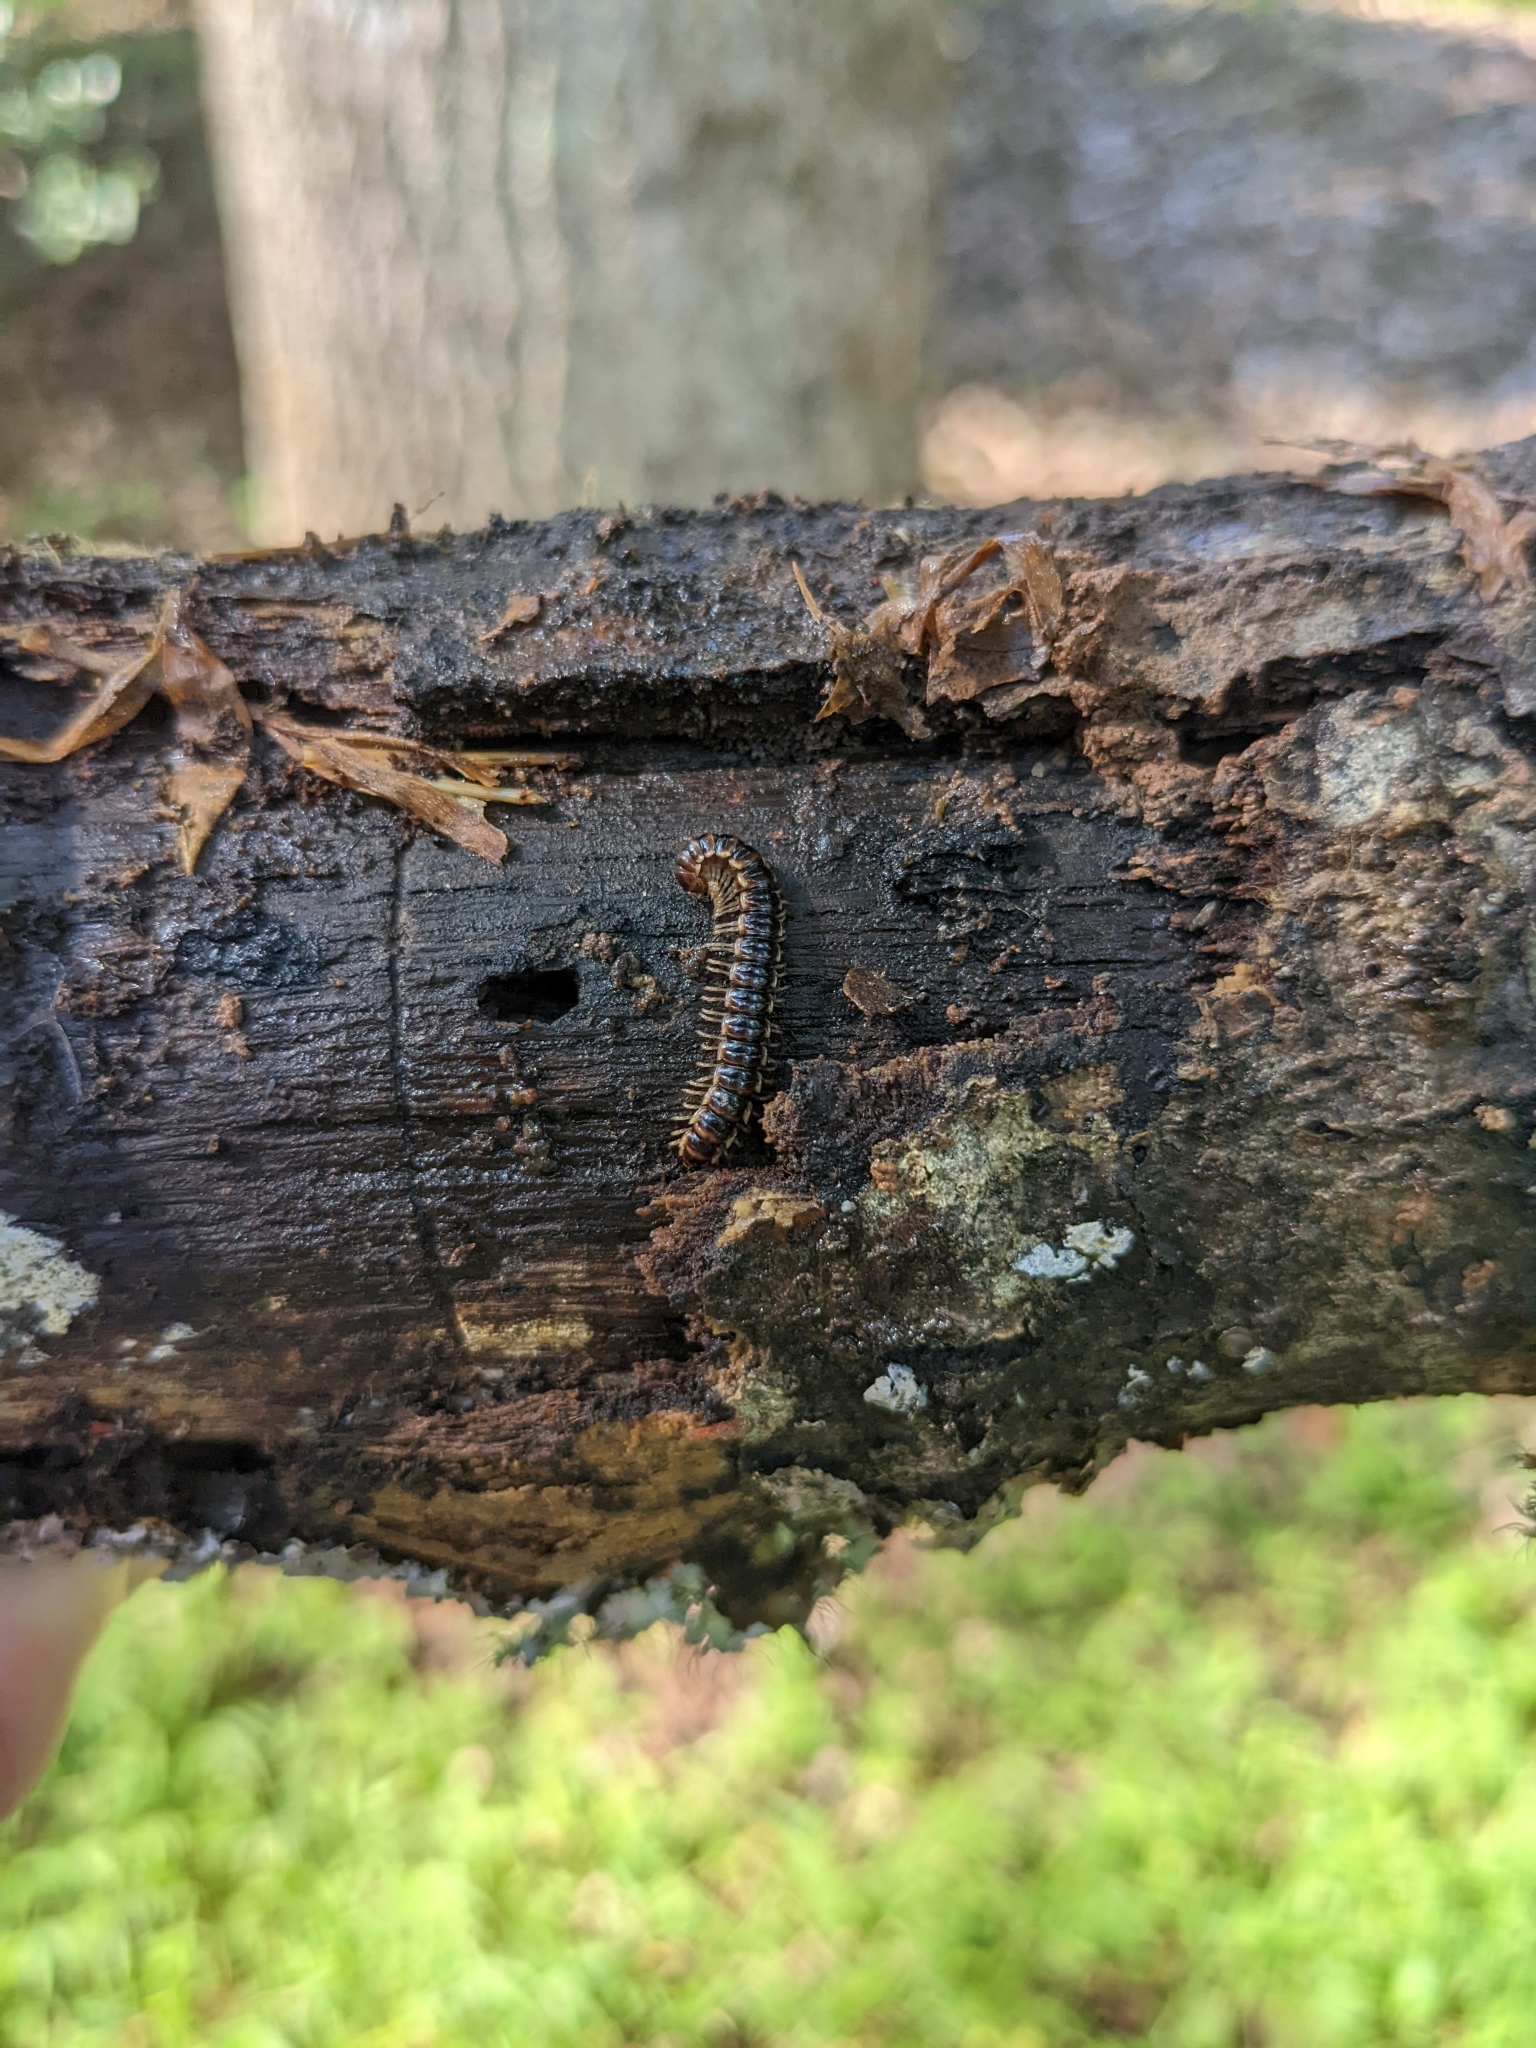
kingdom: Animalia
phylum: Arthropoda
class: Diplopoda
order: Polydesmida
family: Paradoxosomatidae
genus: Oxidus
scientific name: Oxidus gracilis
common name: Greenhouse millipede
